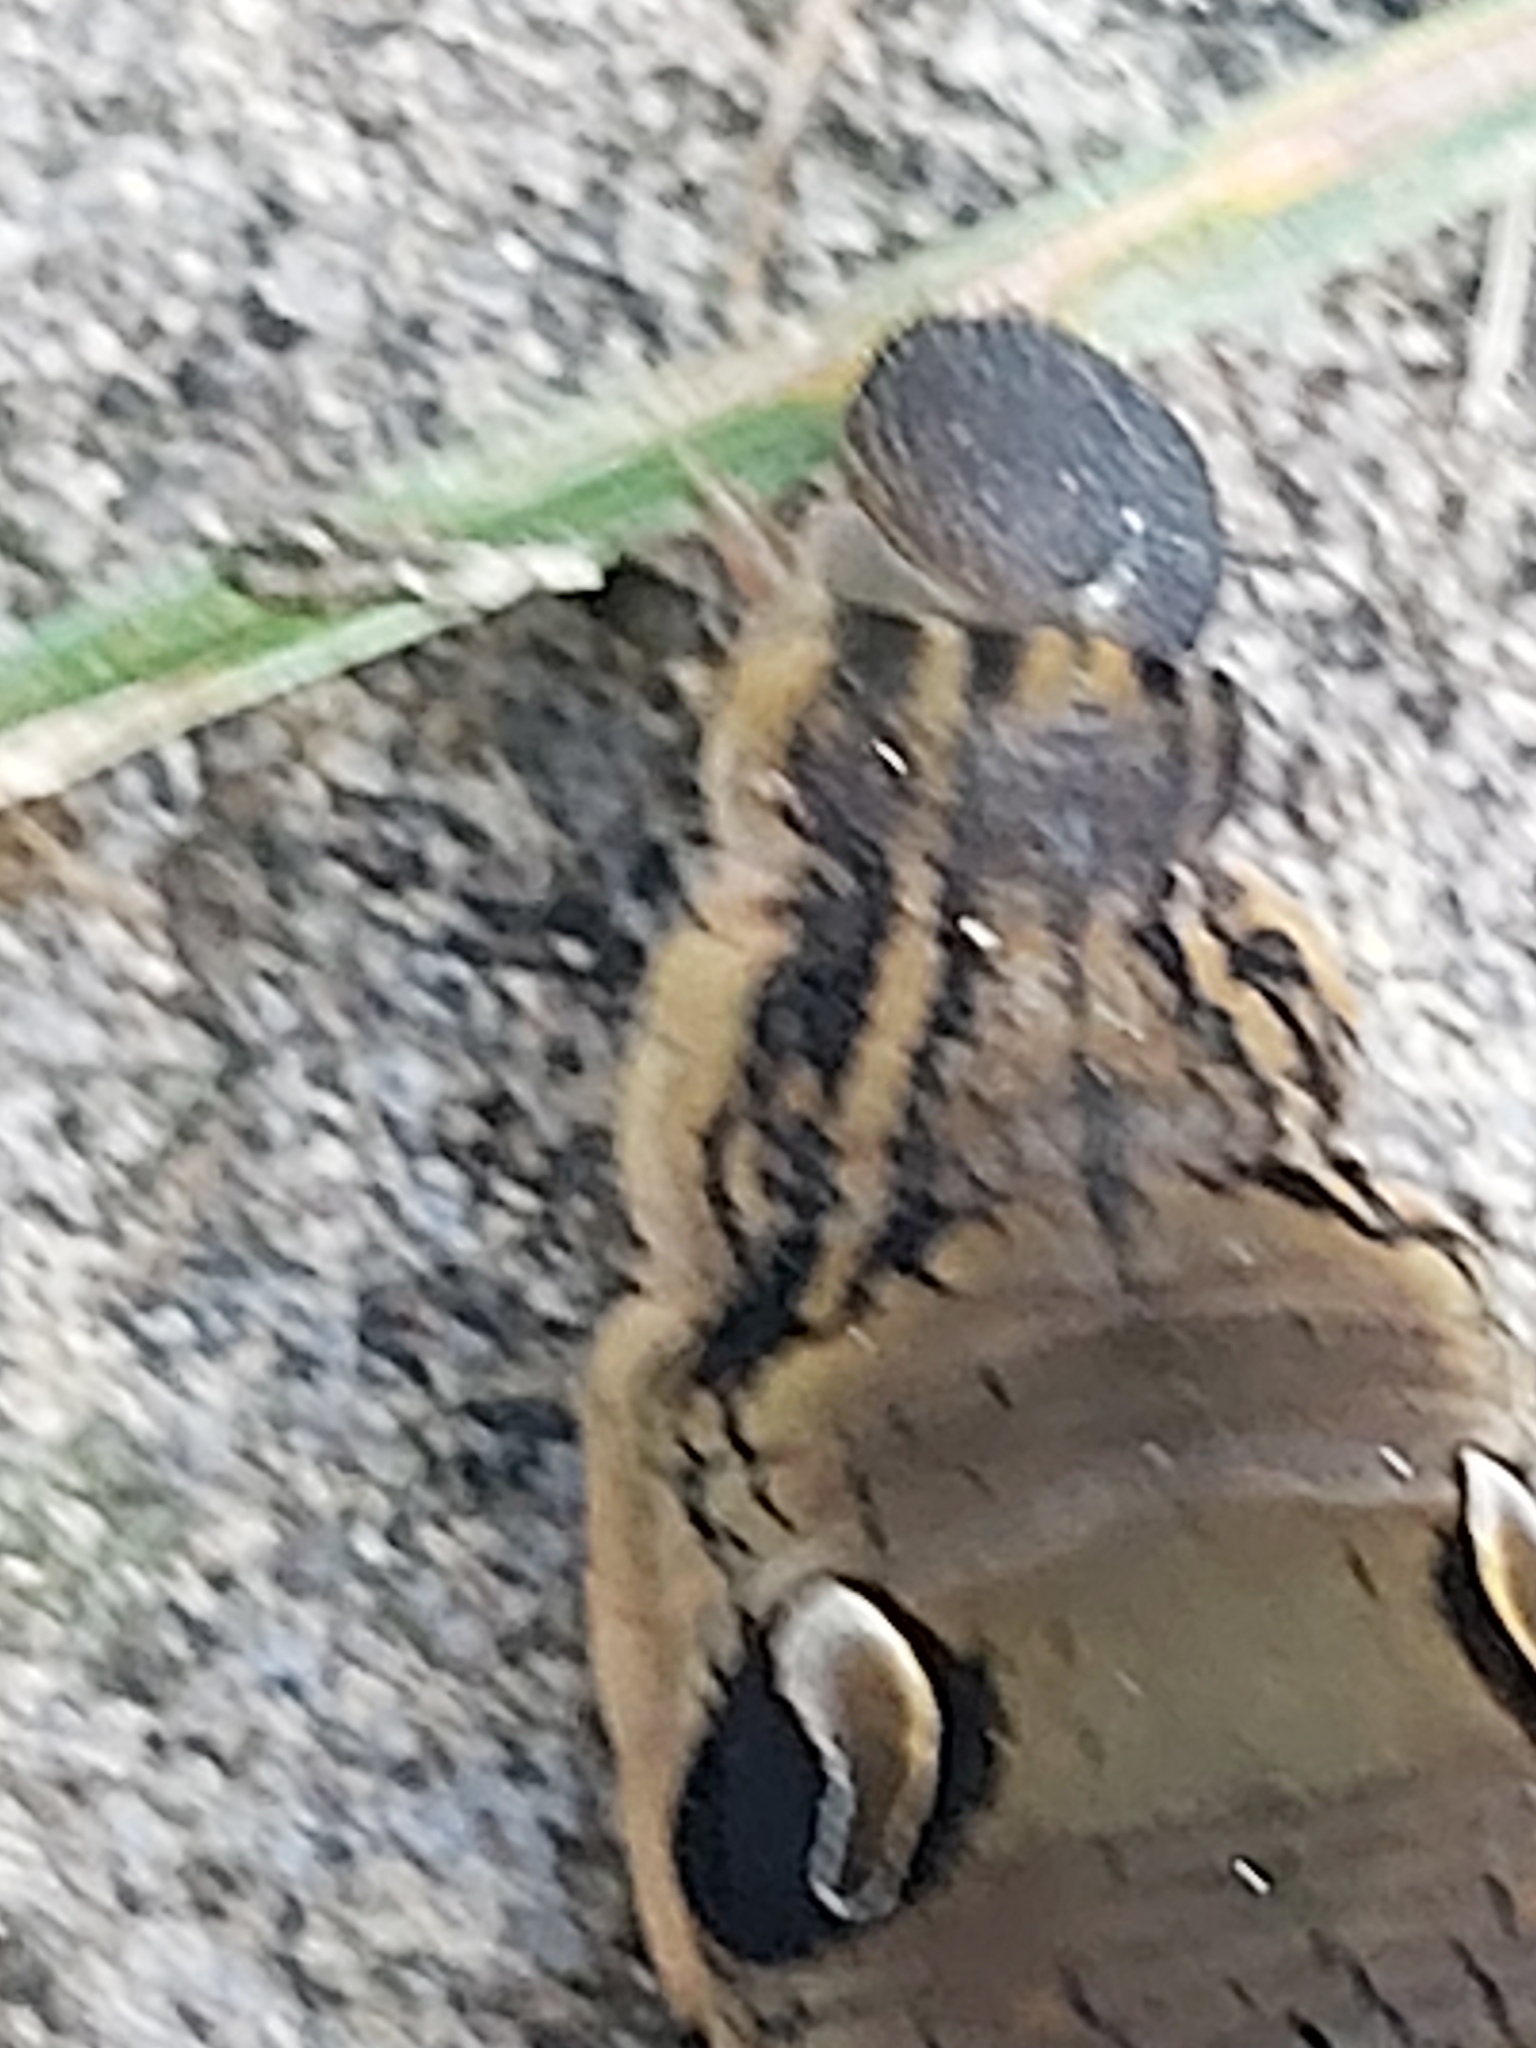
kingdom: Animalia
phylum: Arthropoda
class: Insecta
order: Lepidoptera
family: Sphingidae
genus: Deilephila
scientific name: Deilephila elpenor
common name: Elephant hawk-moth
